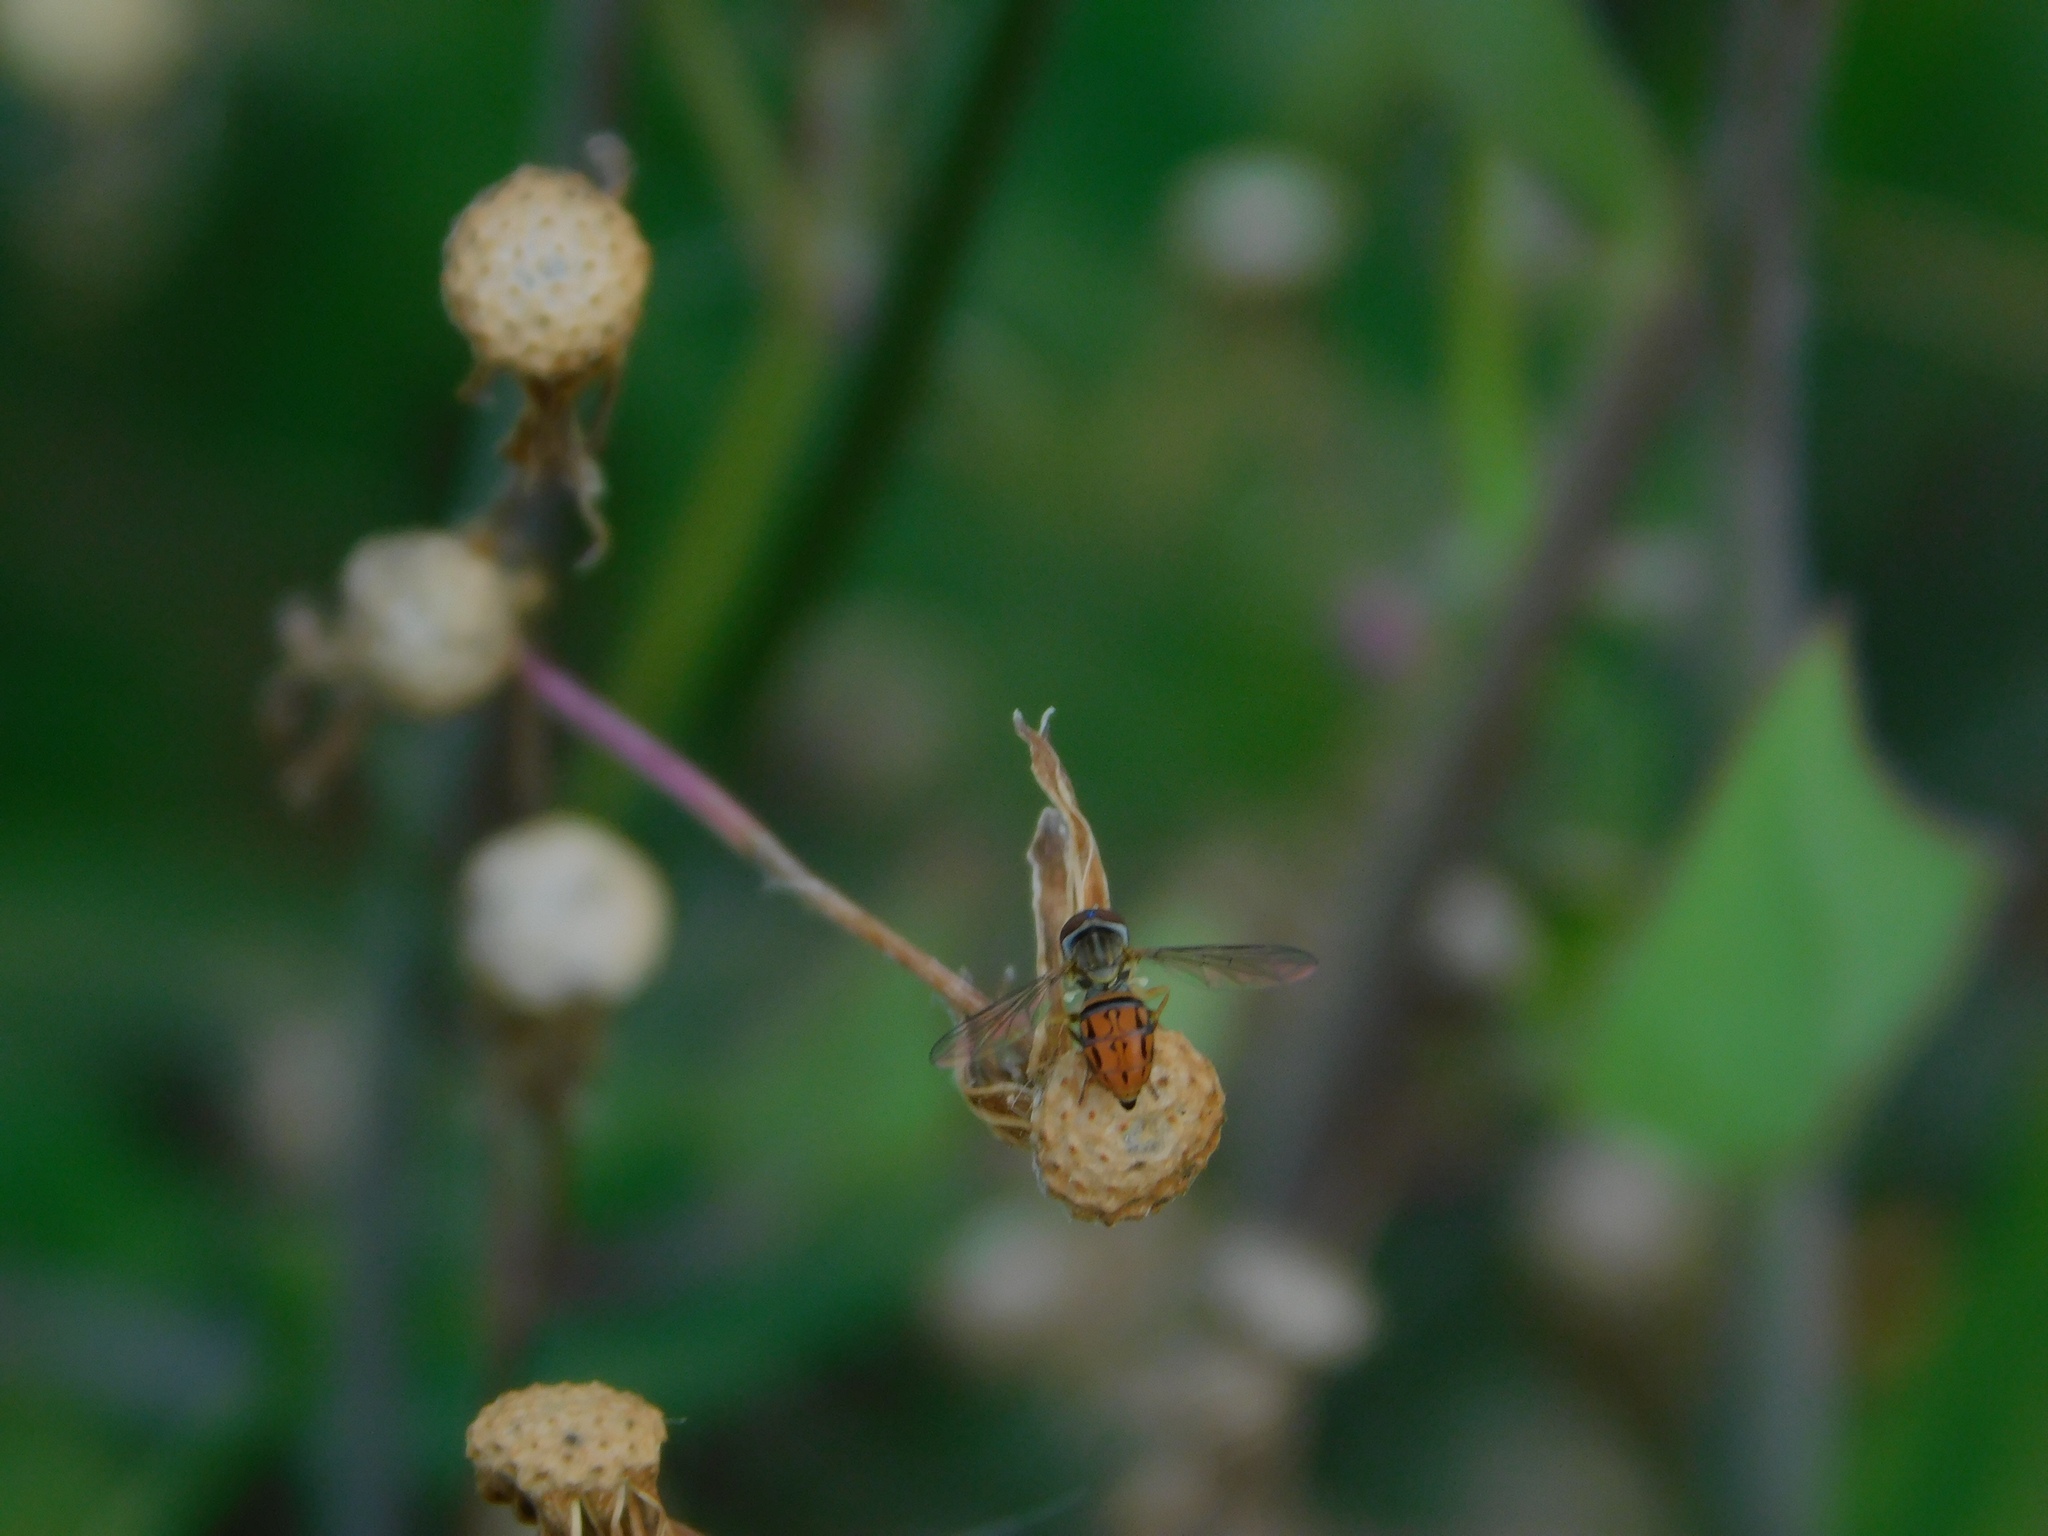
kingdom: Animalia
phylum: Arthropoda
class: Insecta
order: Diptera
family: Syrphidae
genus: Toxomerus
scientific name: Toxomerus boscii
